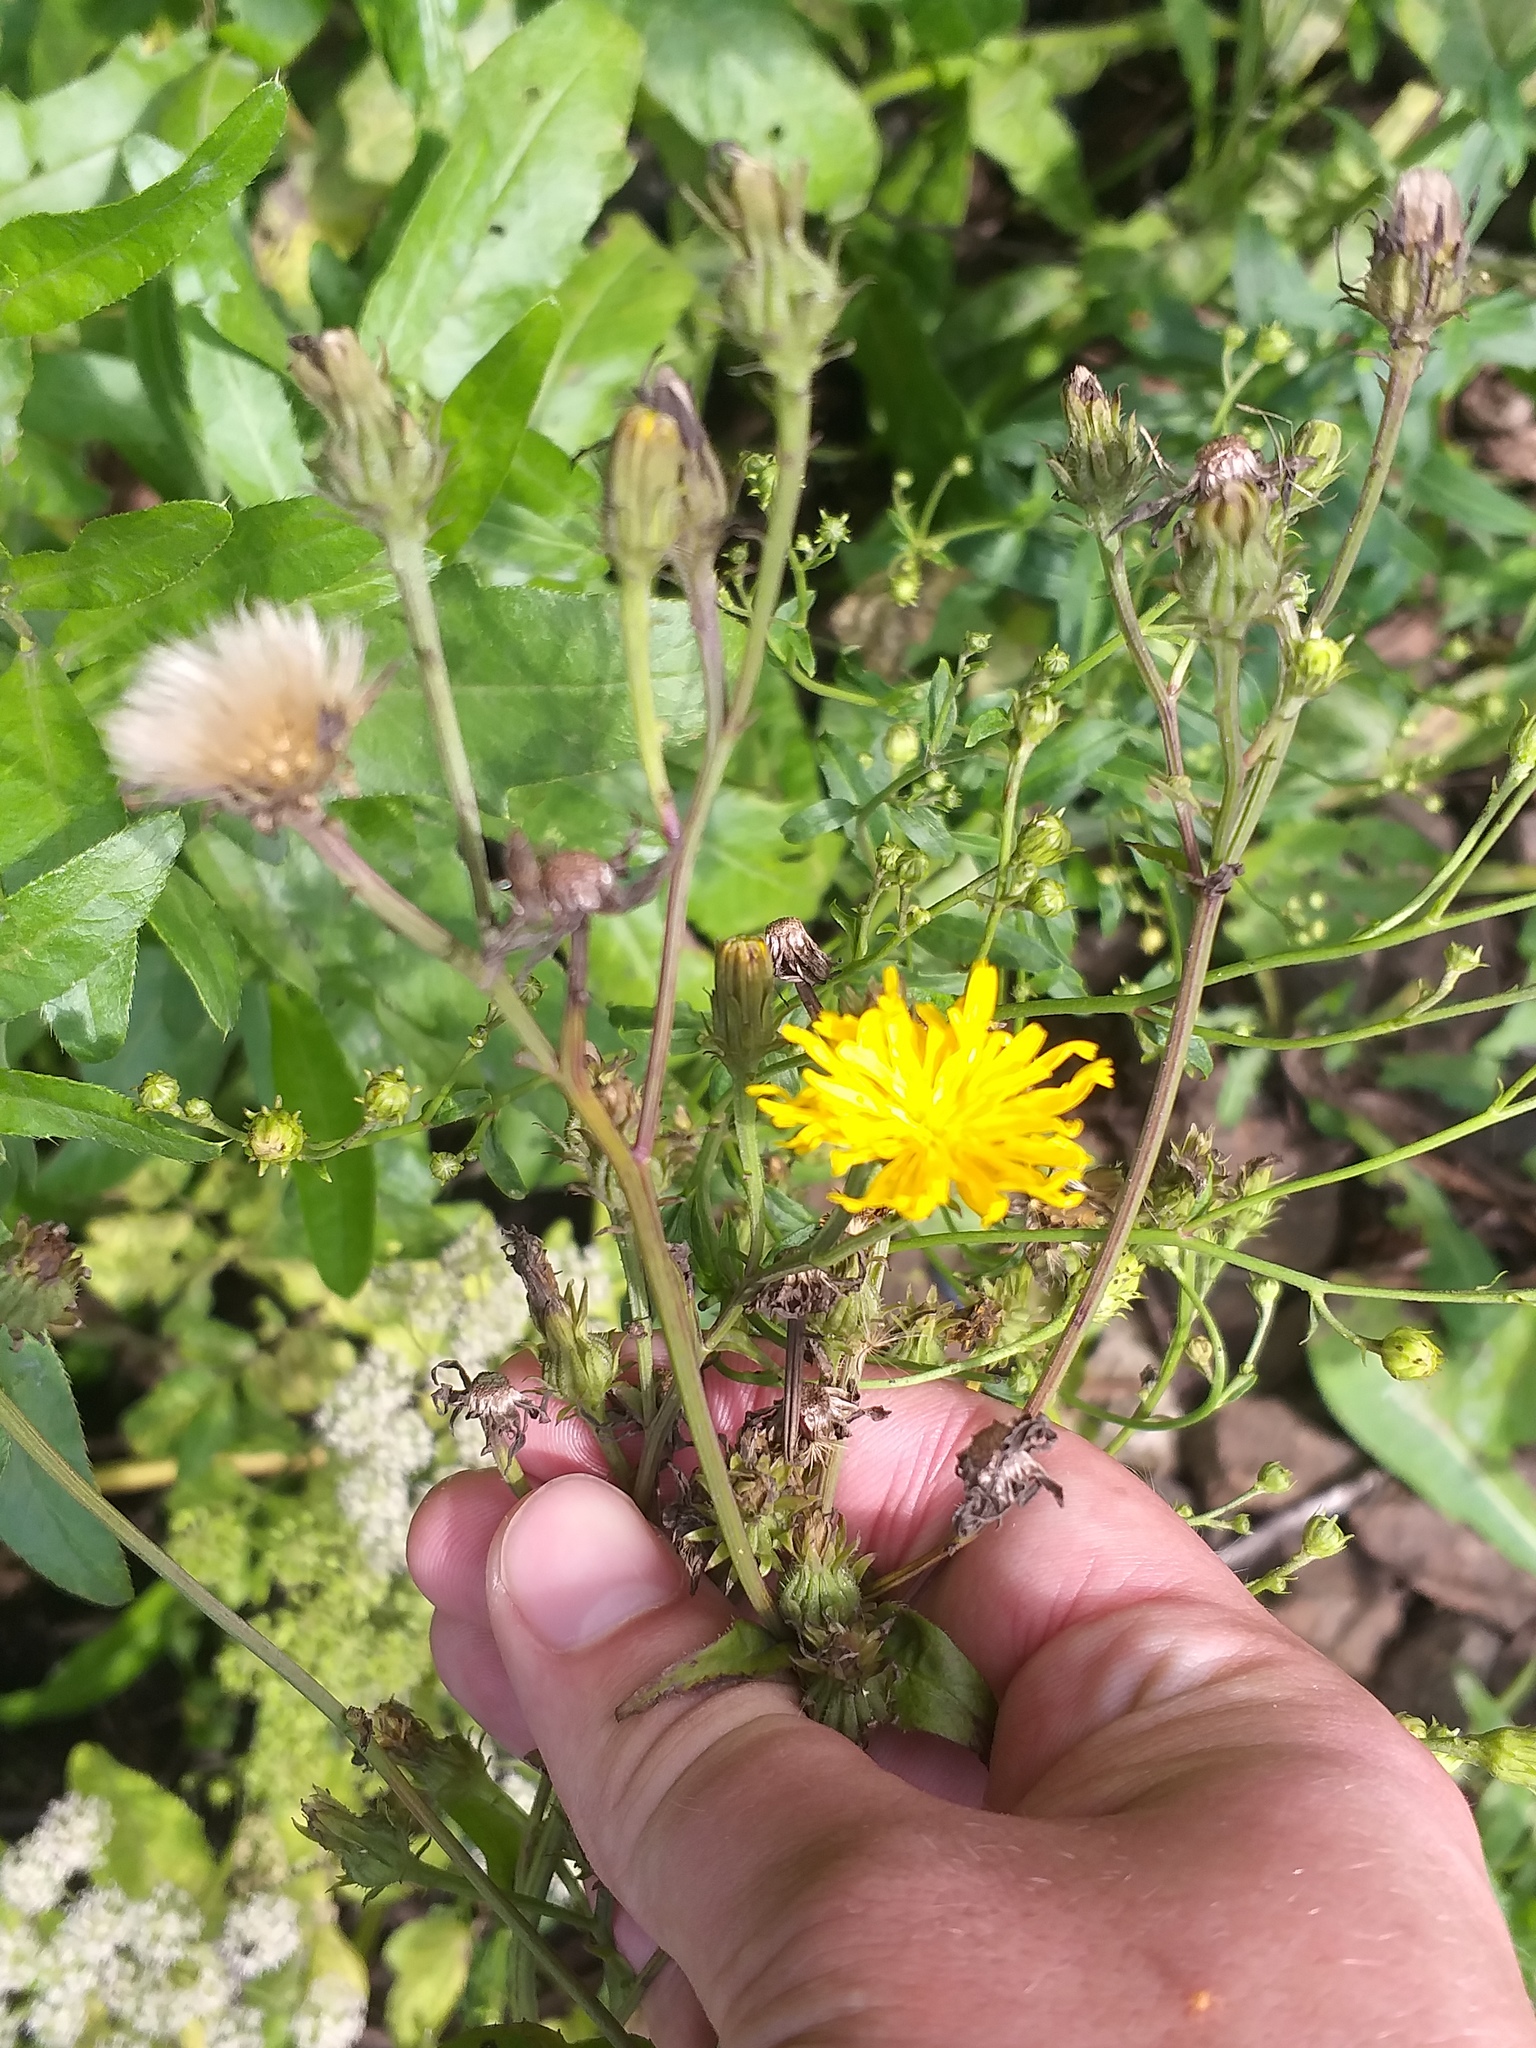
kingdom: Plantae
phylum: Tracheophyta
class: Magnoliopsida
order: Asterales
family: Asteraceae
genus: Picris
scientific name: Picris hieracioides
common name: Hawkweed oxtongue
